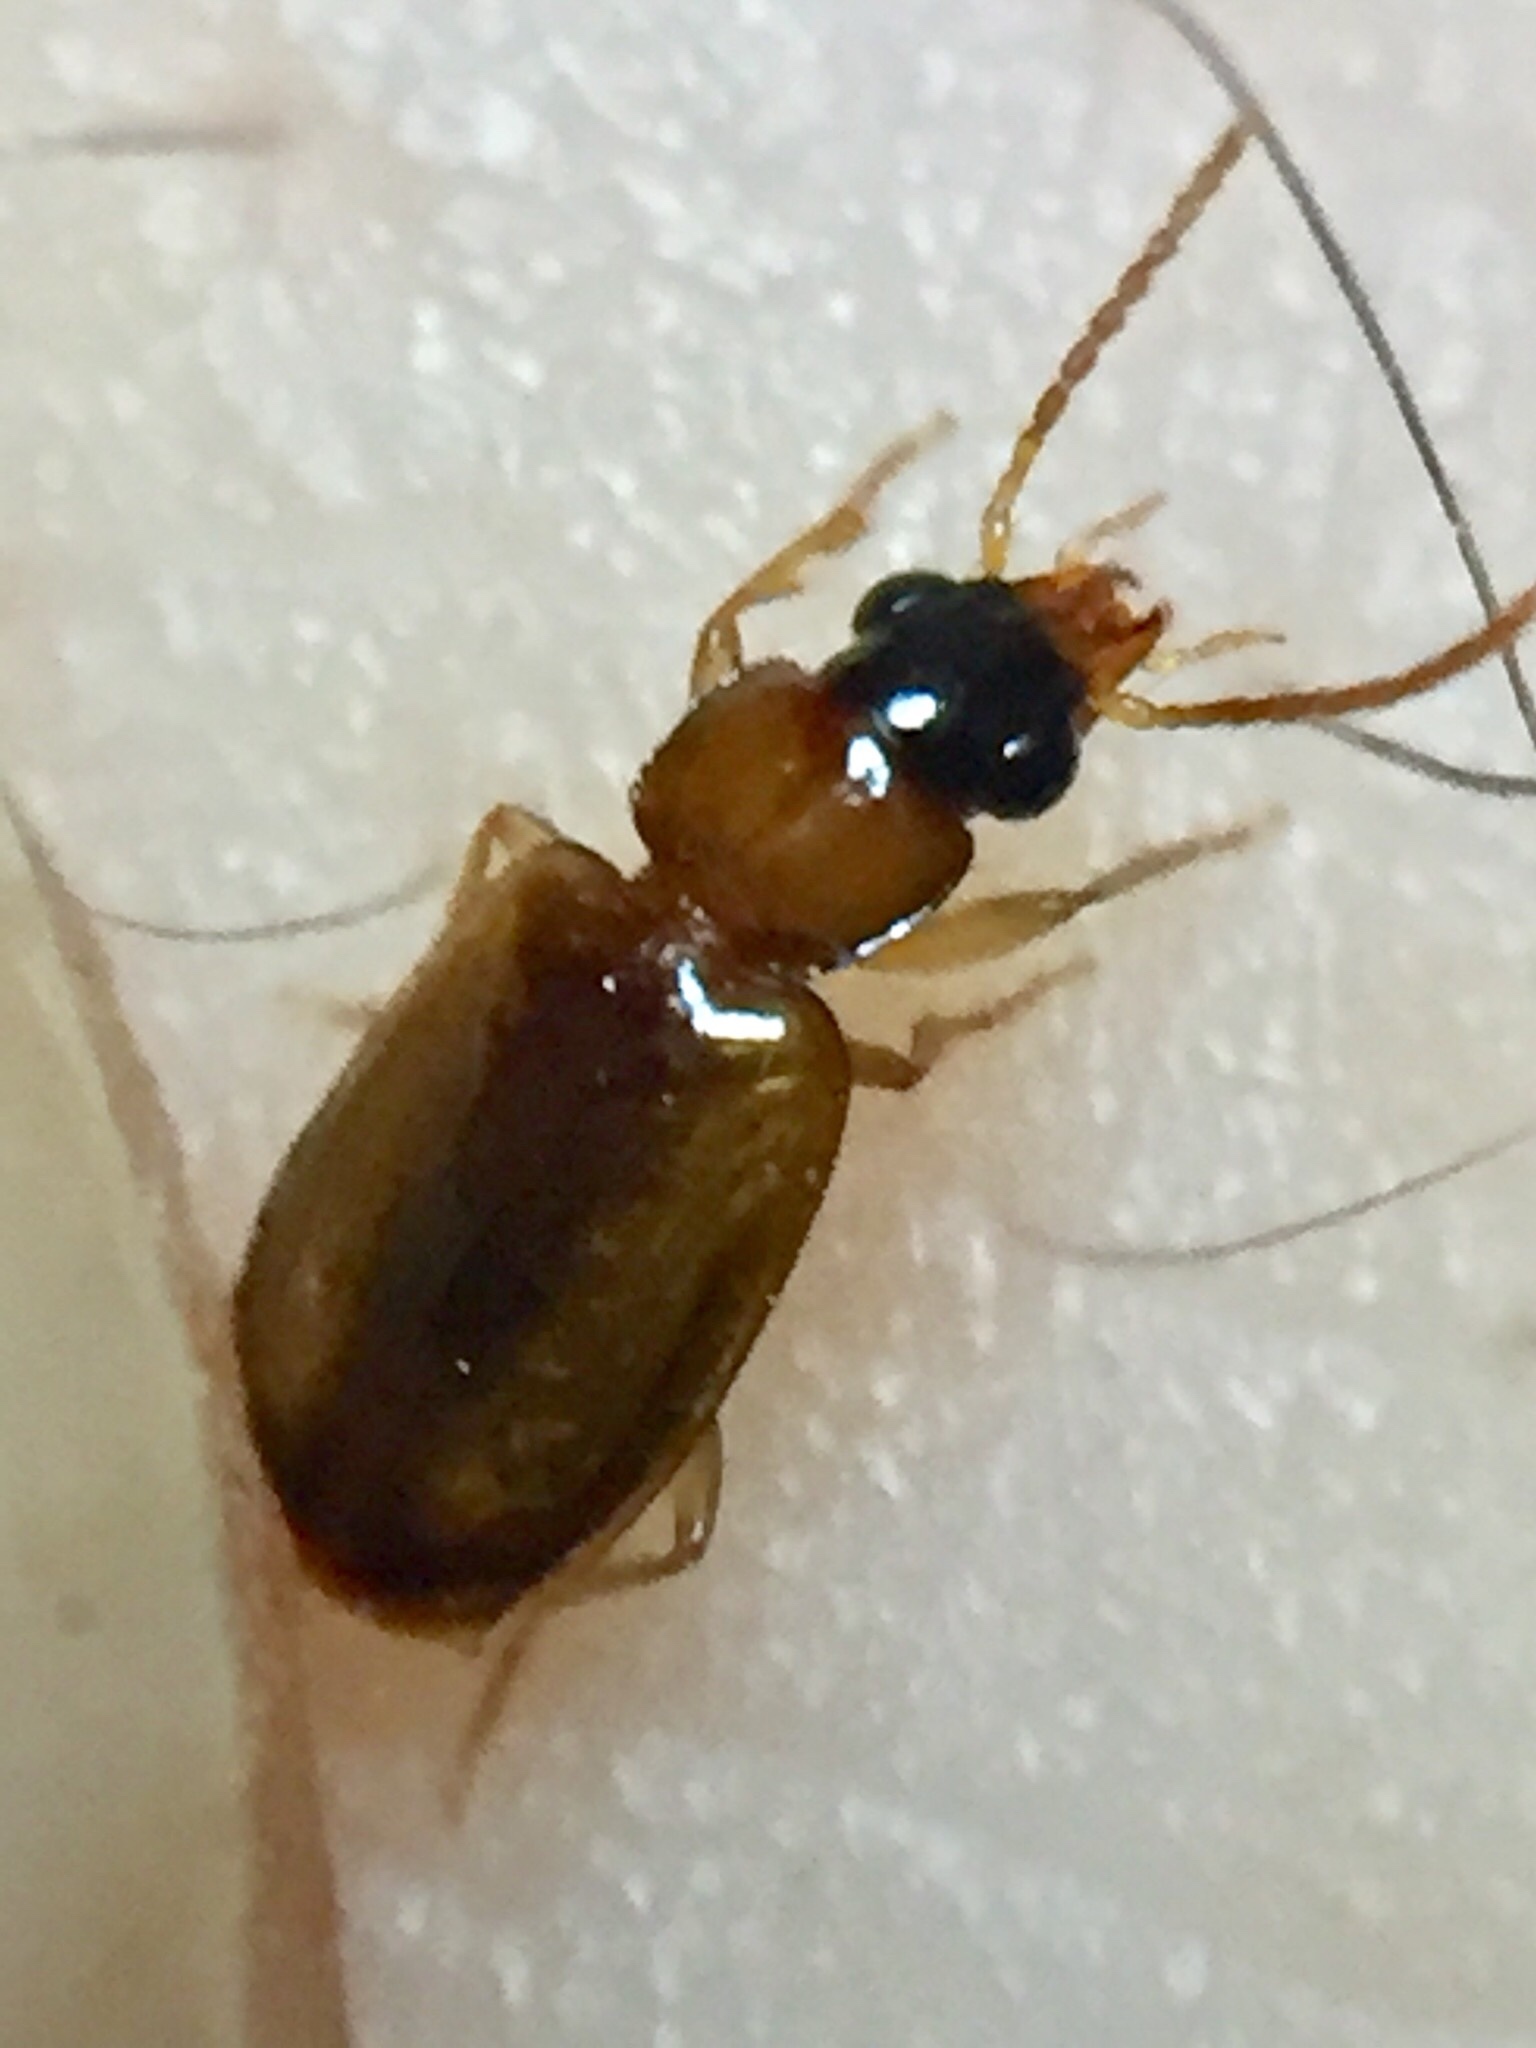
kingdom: Animalia
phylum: Arthropoda
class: Insecta
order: Coleoptera
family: Carabidae
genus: Perigona
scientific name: Perigona nigriceps
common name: Tawny harp ground beetle
